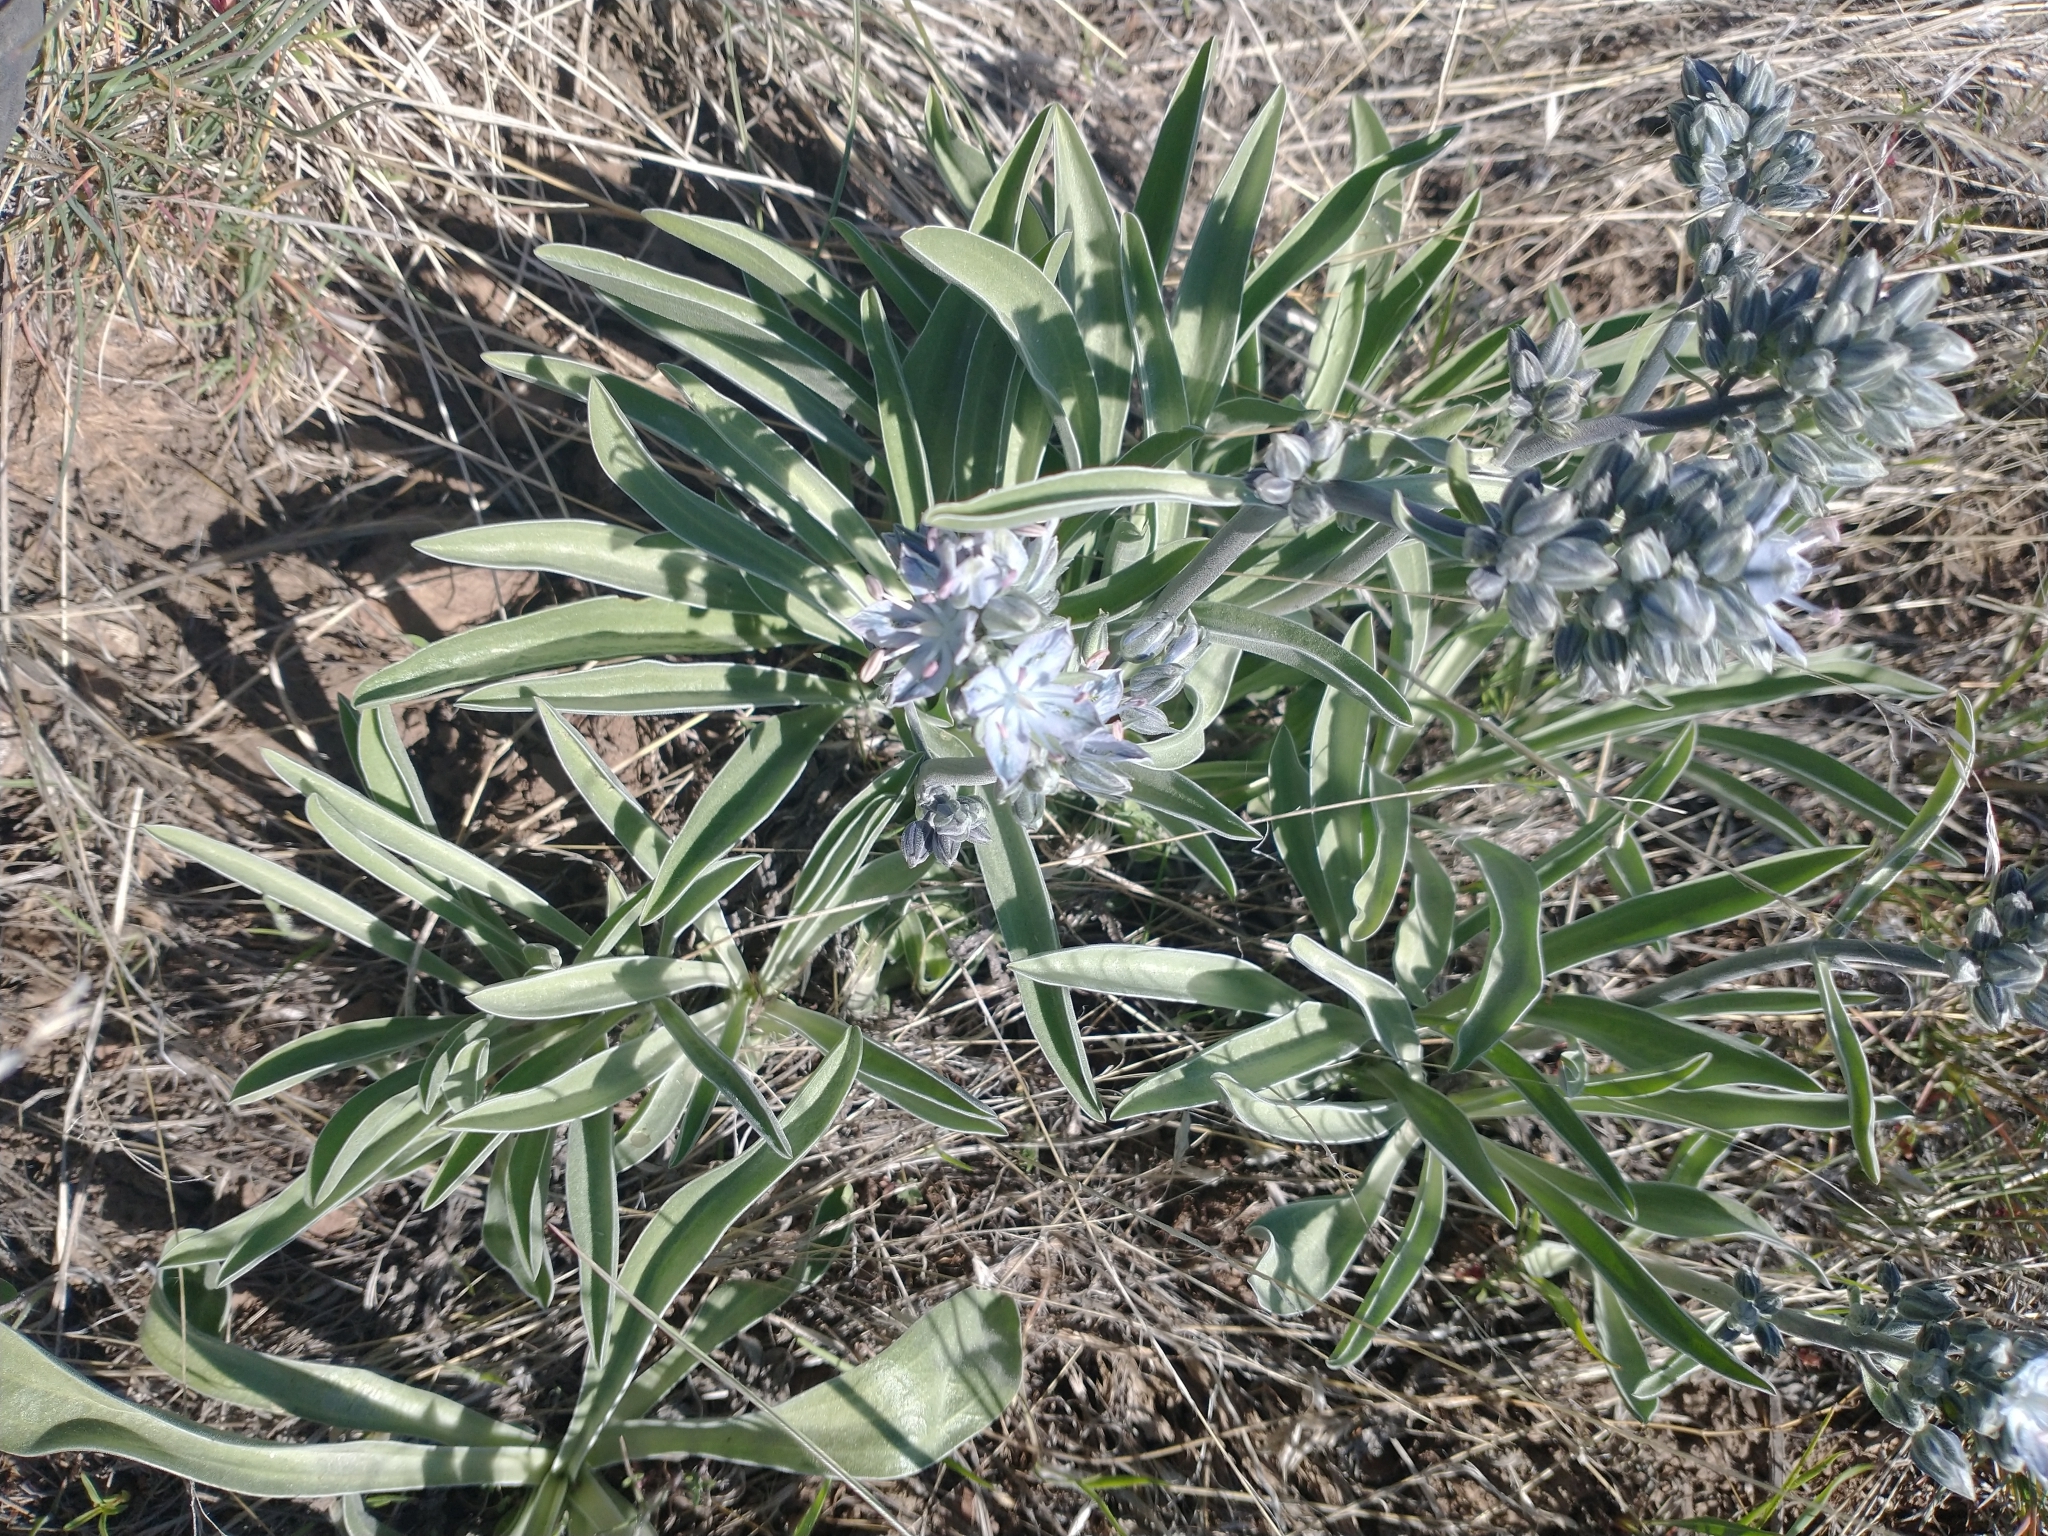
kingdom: Plantae
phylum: Tracheophyta
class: Magnoliopsida
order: Gentianales
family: Gentianaceae
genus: Frasera
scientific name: Frasera albicaulis
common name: Cusick's frasera
